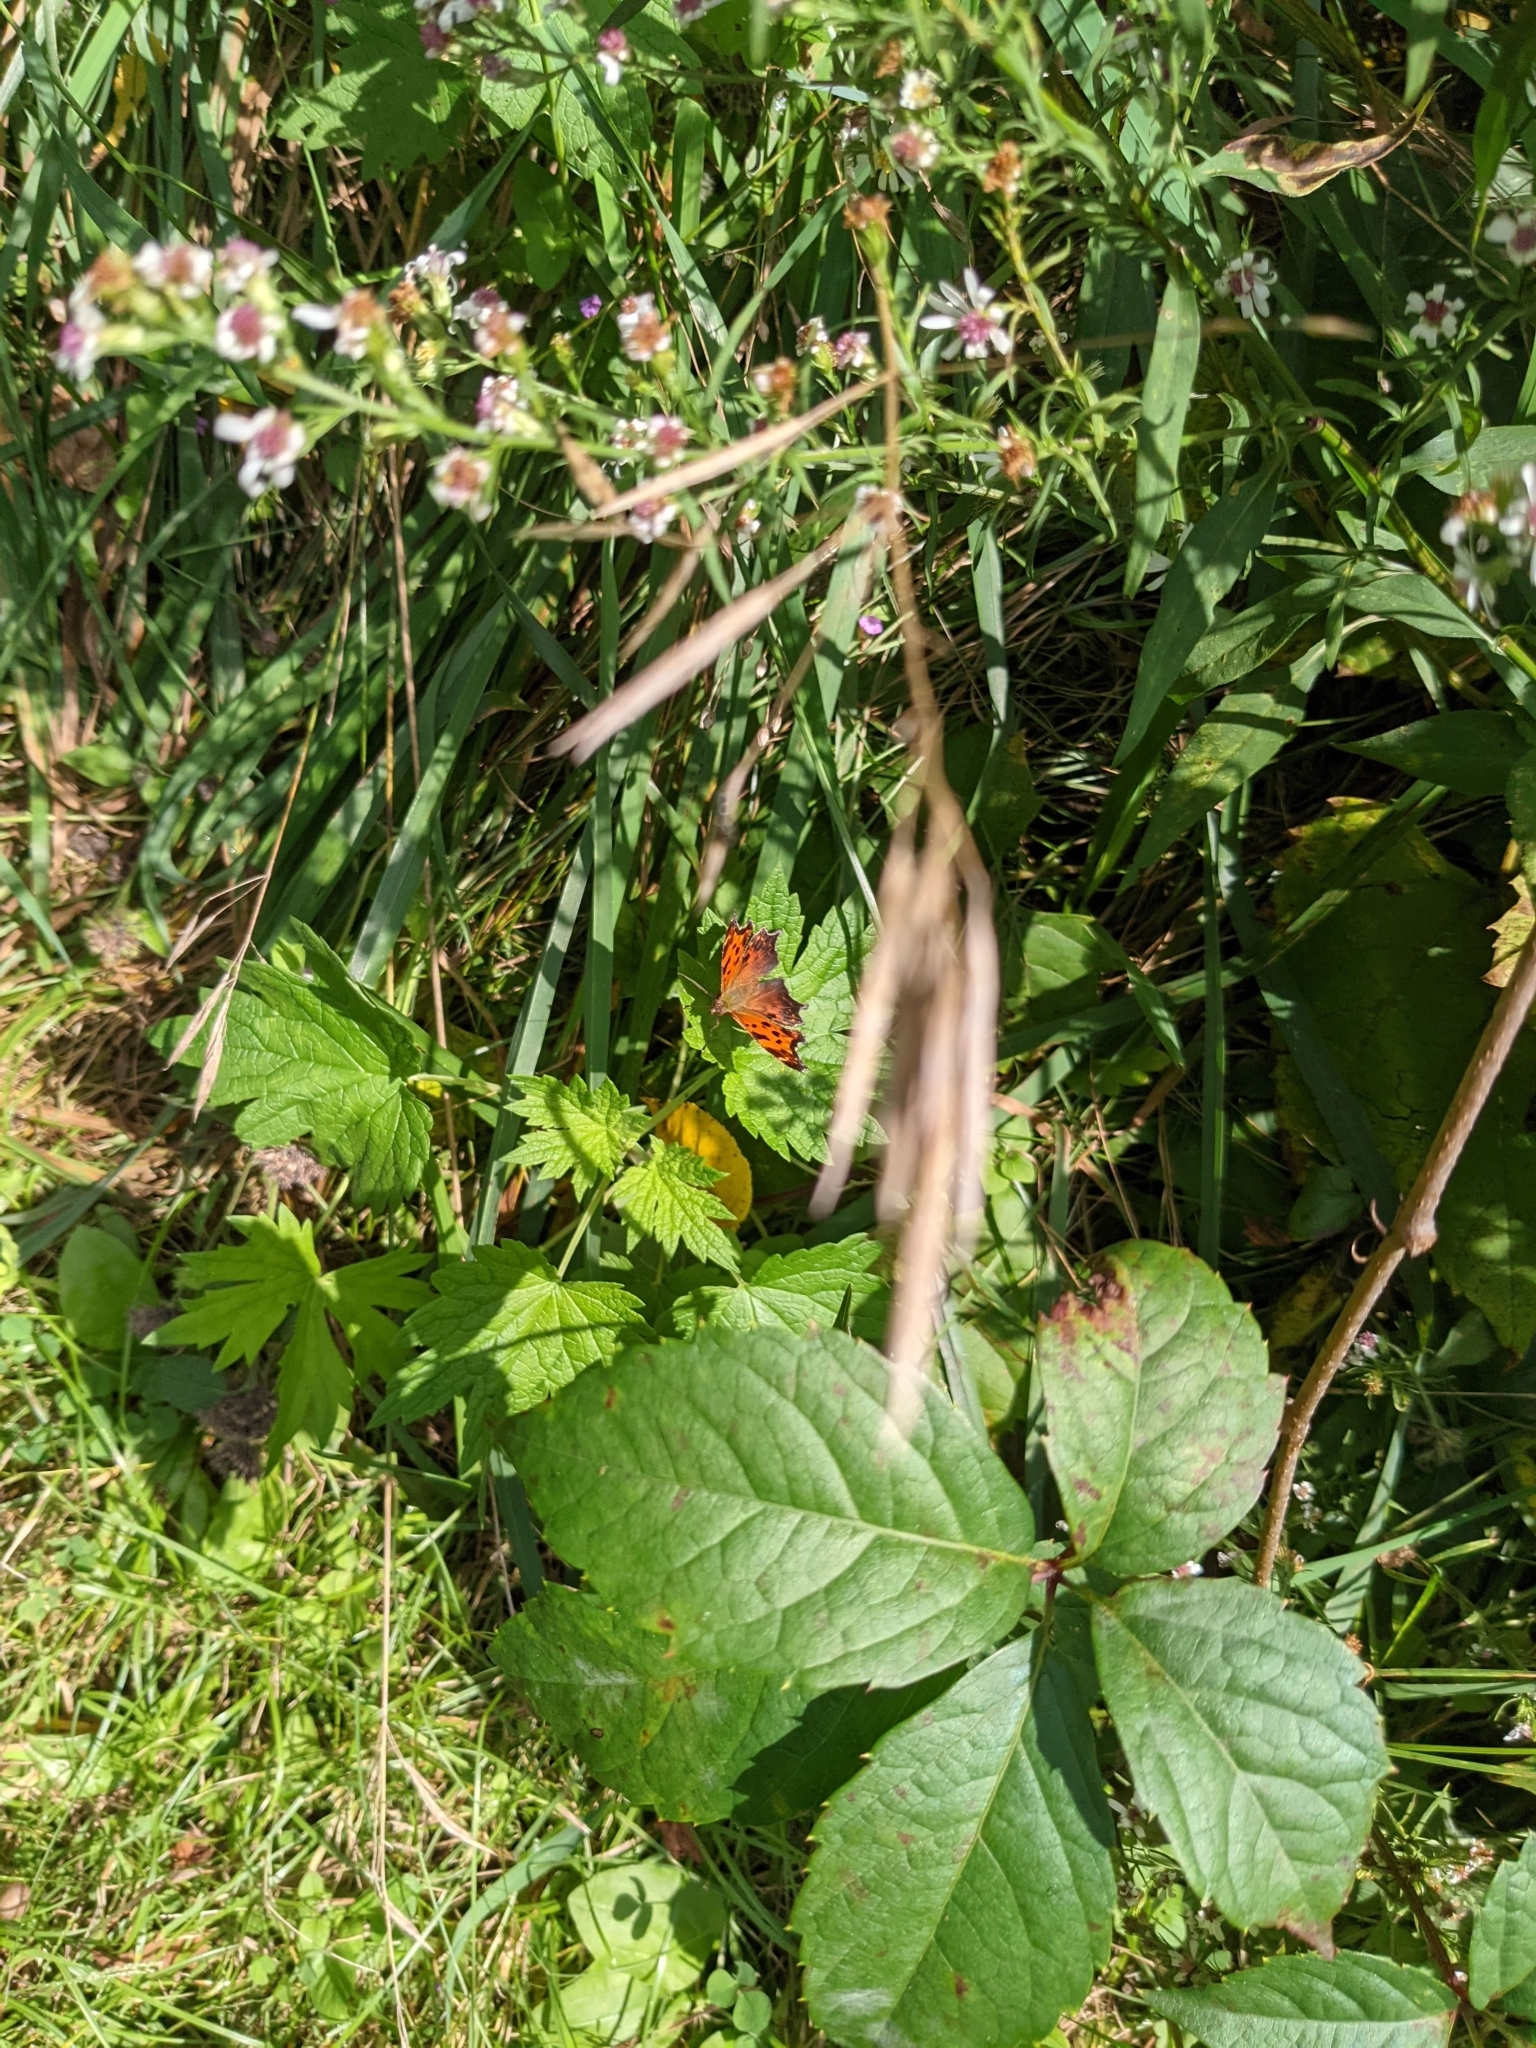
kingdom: Animalia
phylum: Arthropoda
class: Insecta
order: Lepidoptera
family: Nymphalidae
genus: Polygonia
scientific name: Polygonia comma
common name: Eastern comma
